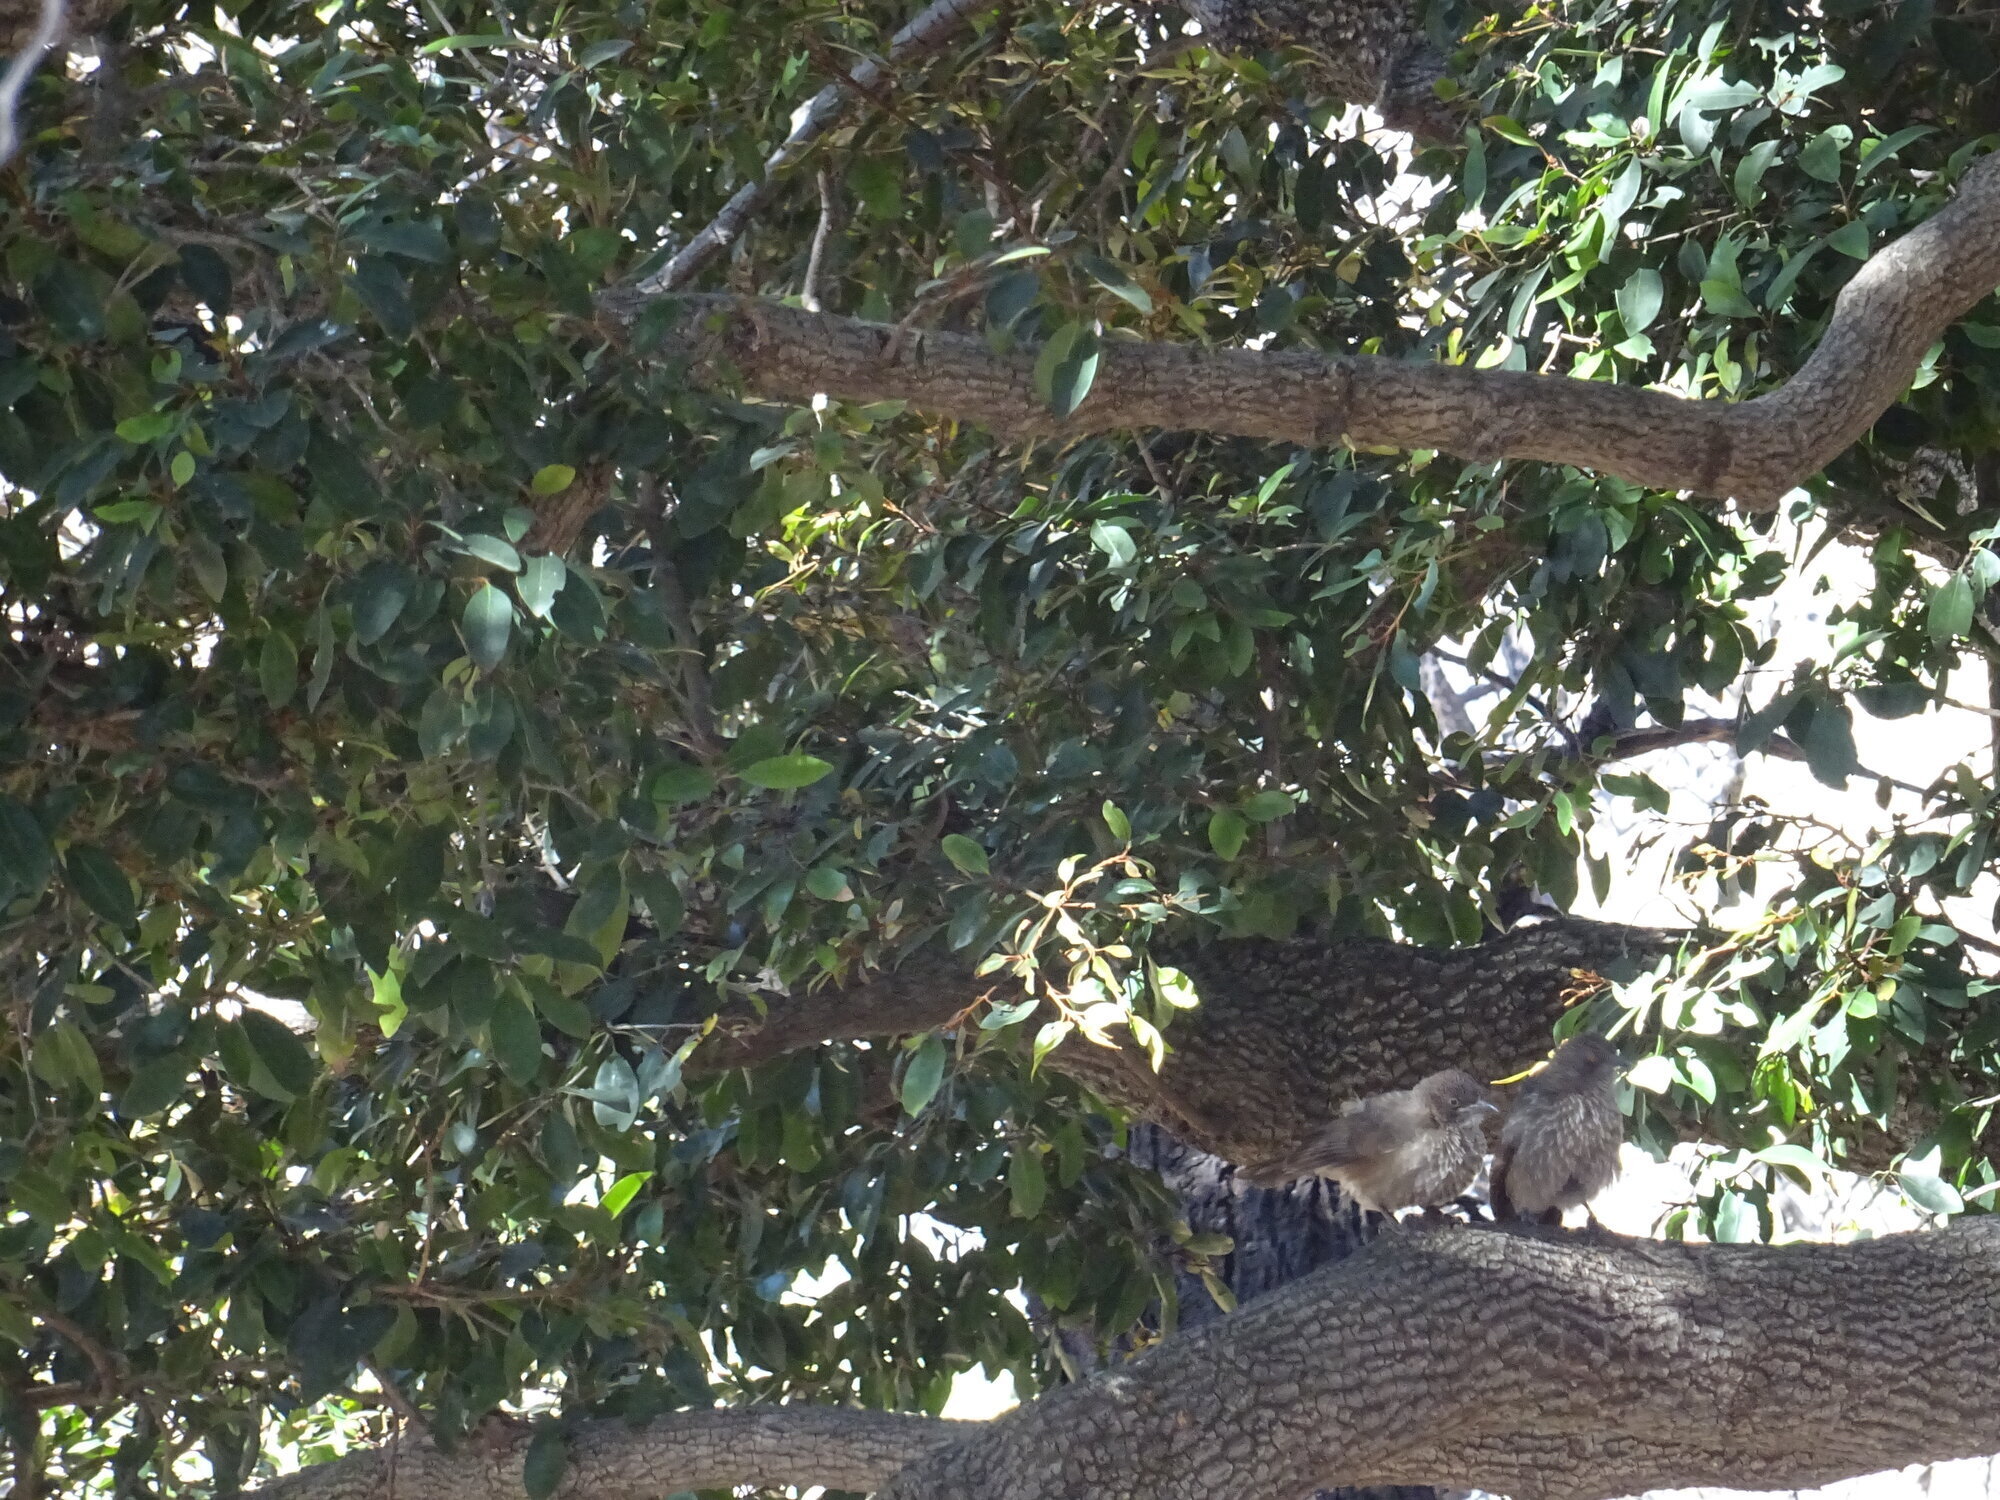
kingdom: Animalia
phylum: Chordata
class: Aves
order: Passeriformes
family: Leiothrichidae
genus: Turdoides
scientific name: Turdoides jardineii
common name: Arrow-marked babbler
